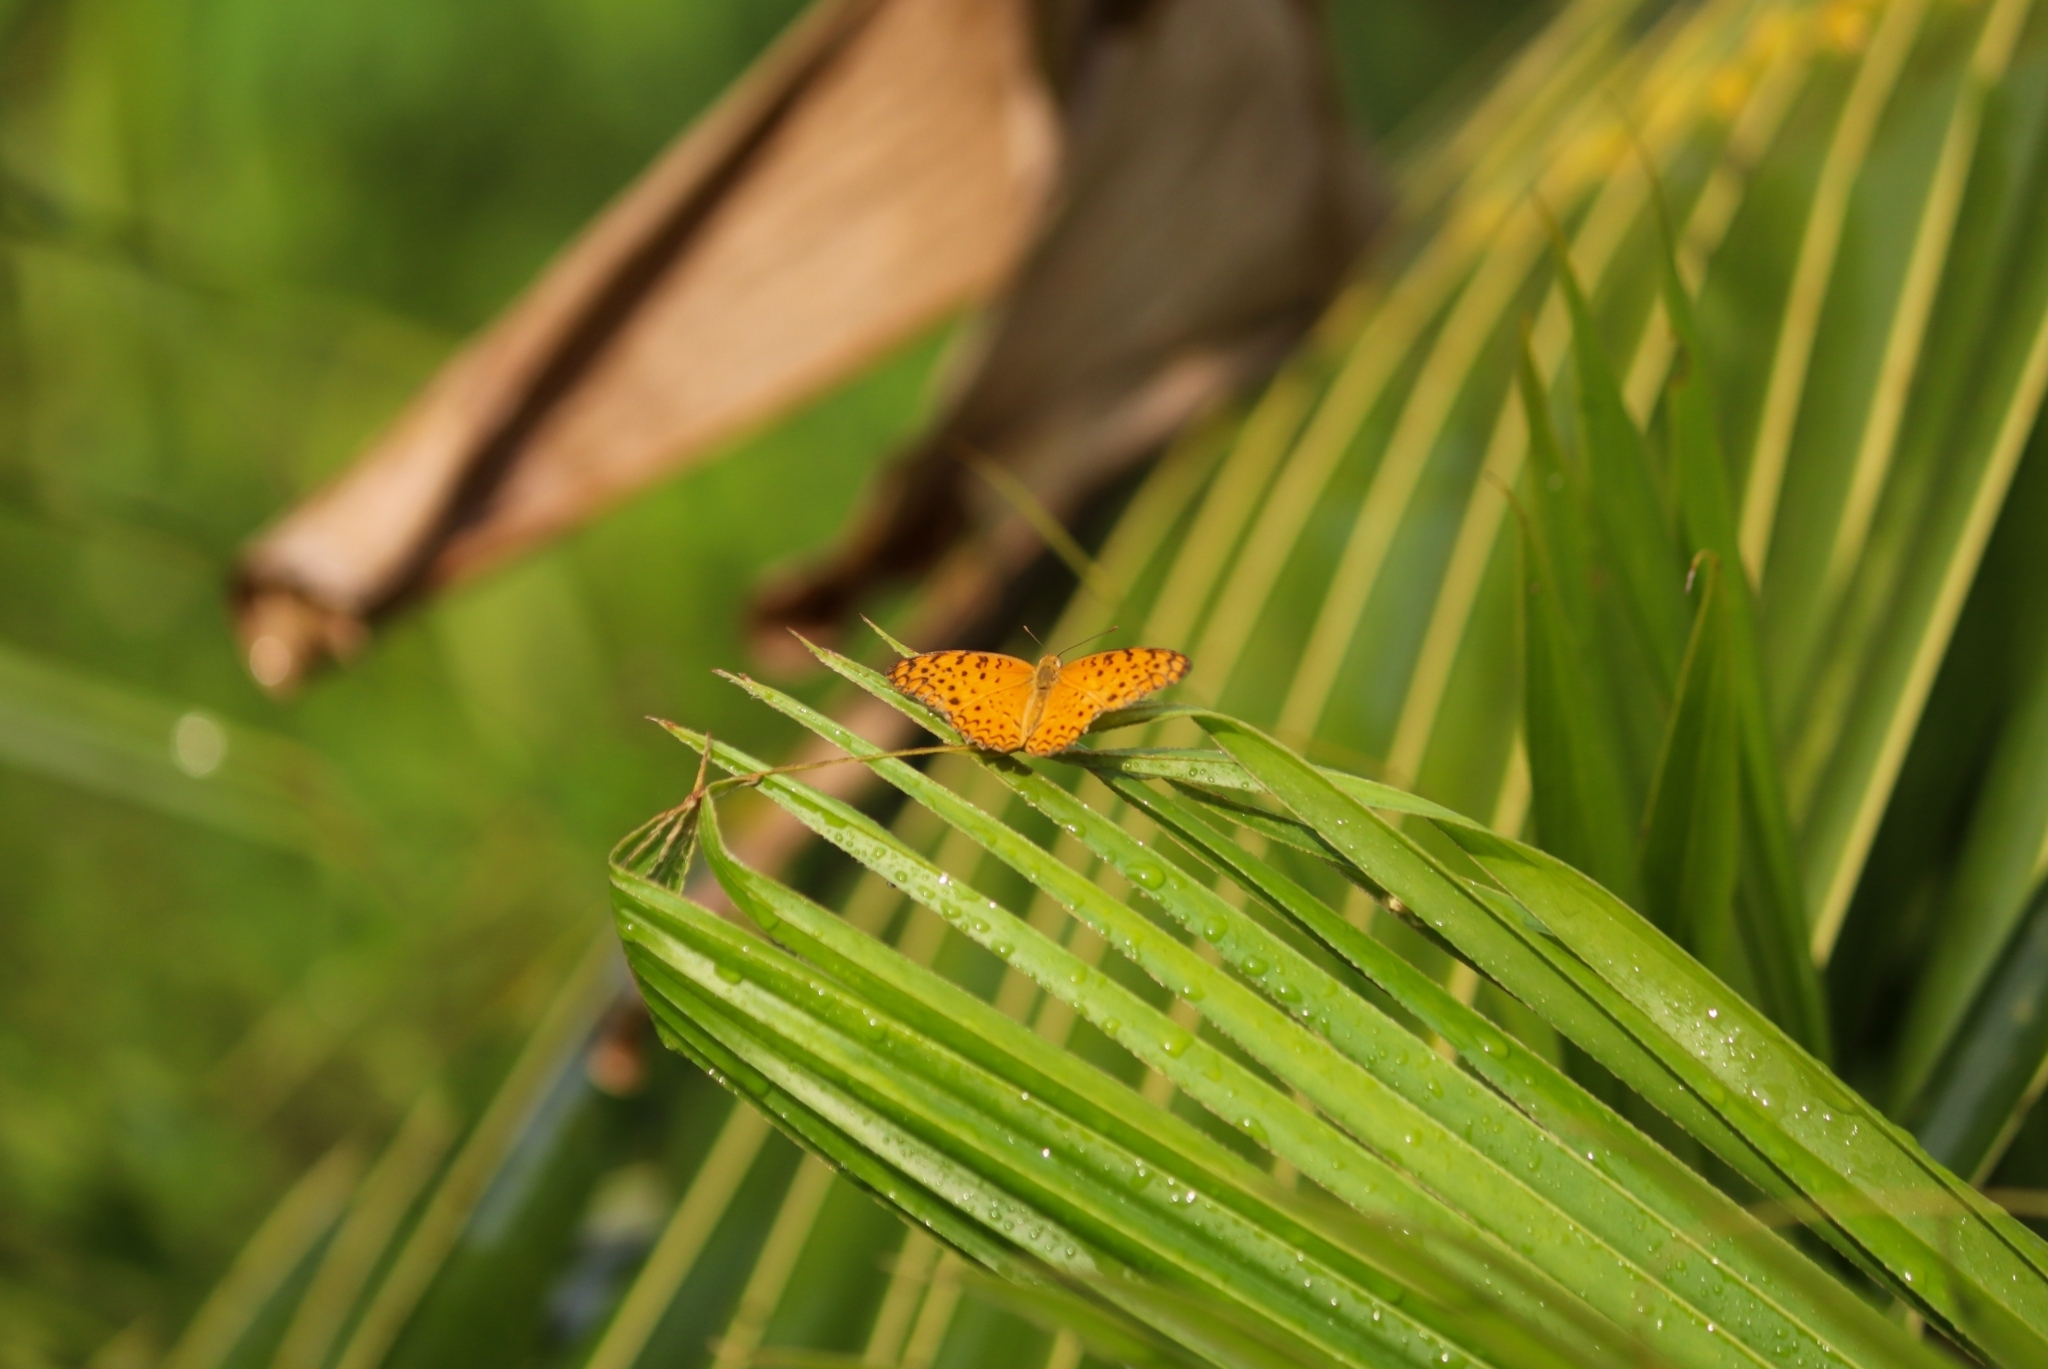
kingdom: Animalia
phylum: Arthropoda
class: Insecta
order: Lepidoptera
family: Nymphalidae
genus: Phalanta
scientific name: Phalanta phalantha
